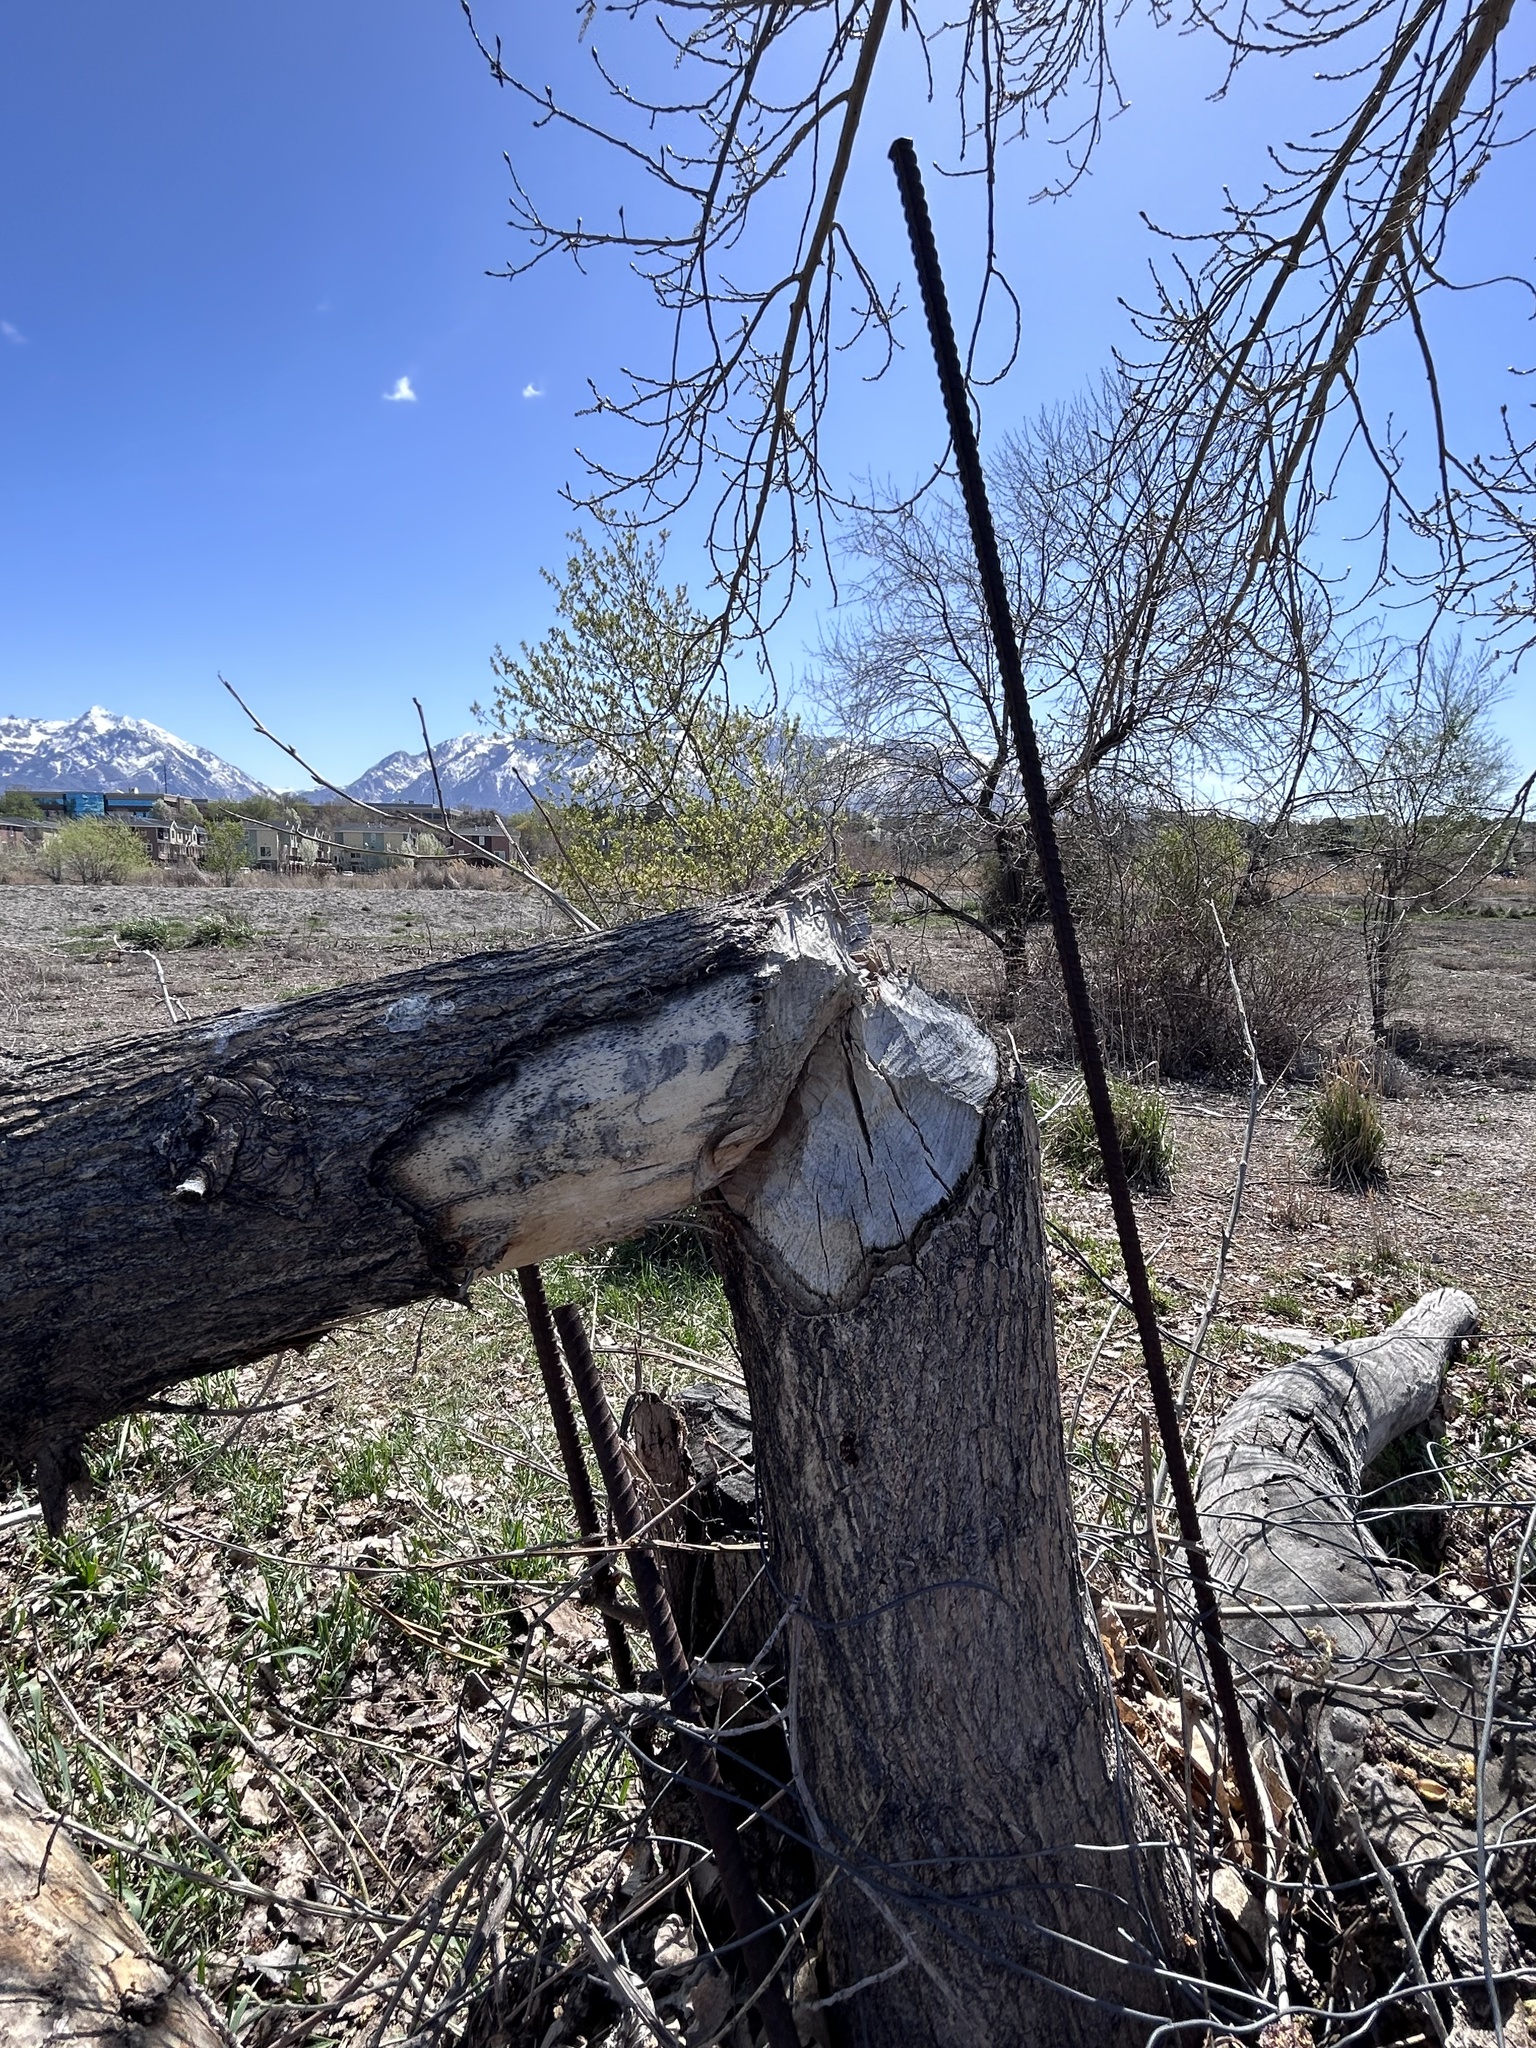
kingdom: Animalia
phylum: Chordata
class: Mammalia
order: Rodentia
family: Castoridae
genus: Castor
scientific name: Castor canadensis
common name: American beaver
